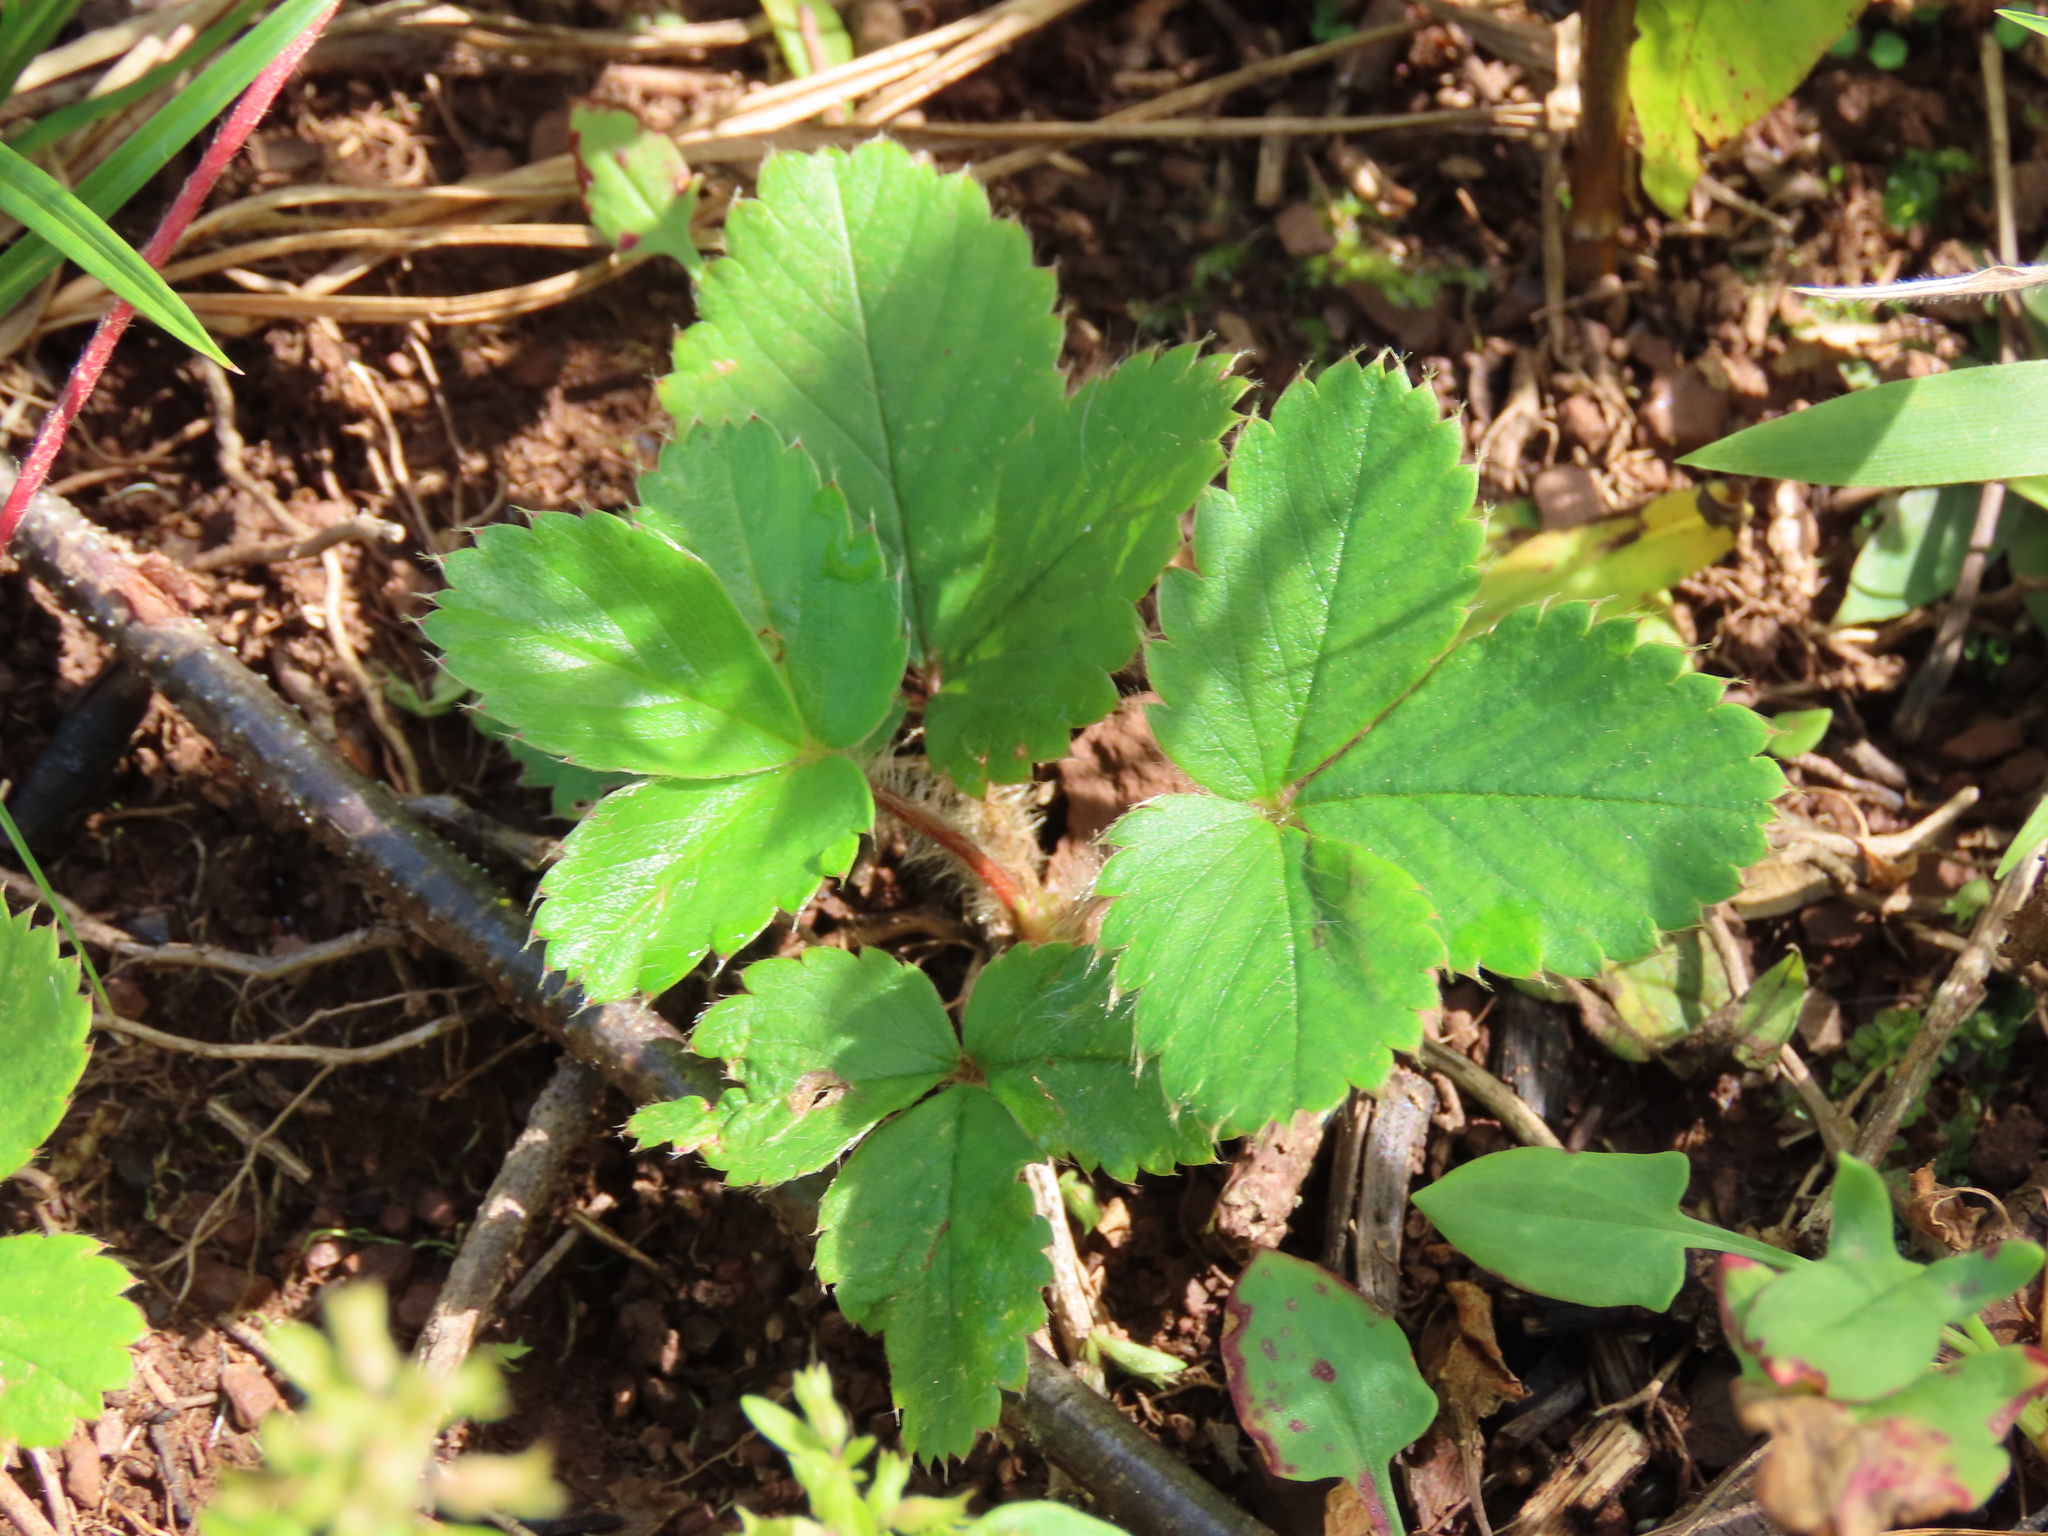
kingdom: Plantae
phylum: Tracheophyta
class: Magnoliopsida
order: Rosales
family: Rosaceae
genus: Fragaria
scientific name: Fragaria virginiana
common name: Thickleaved wild strawberry
